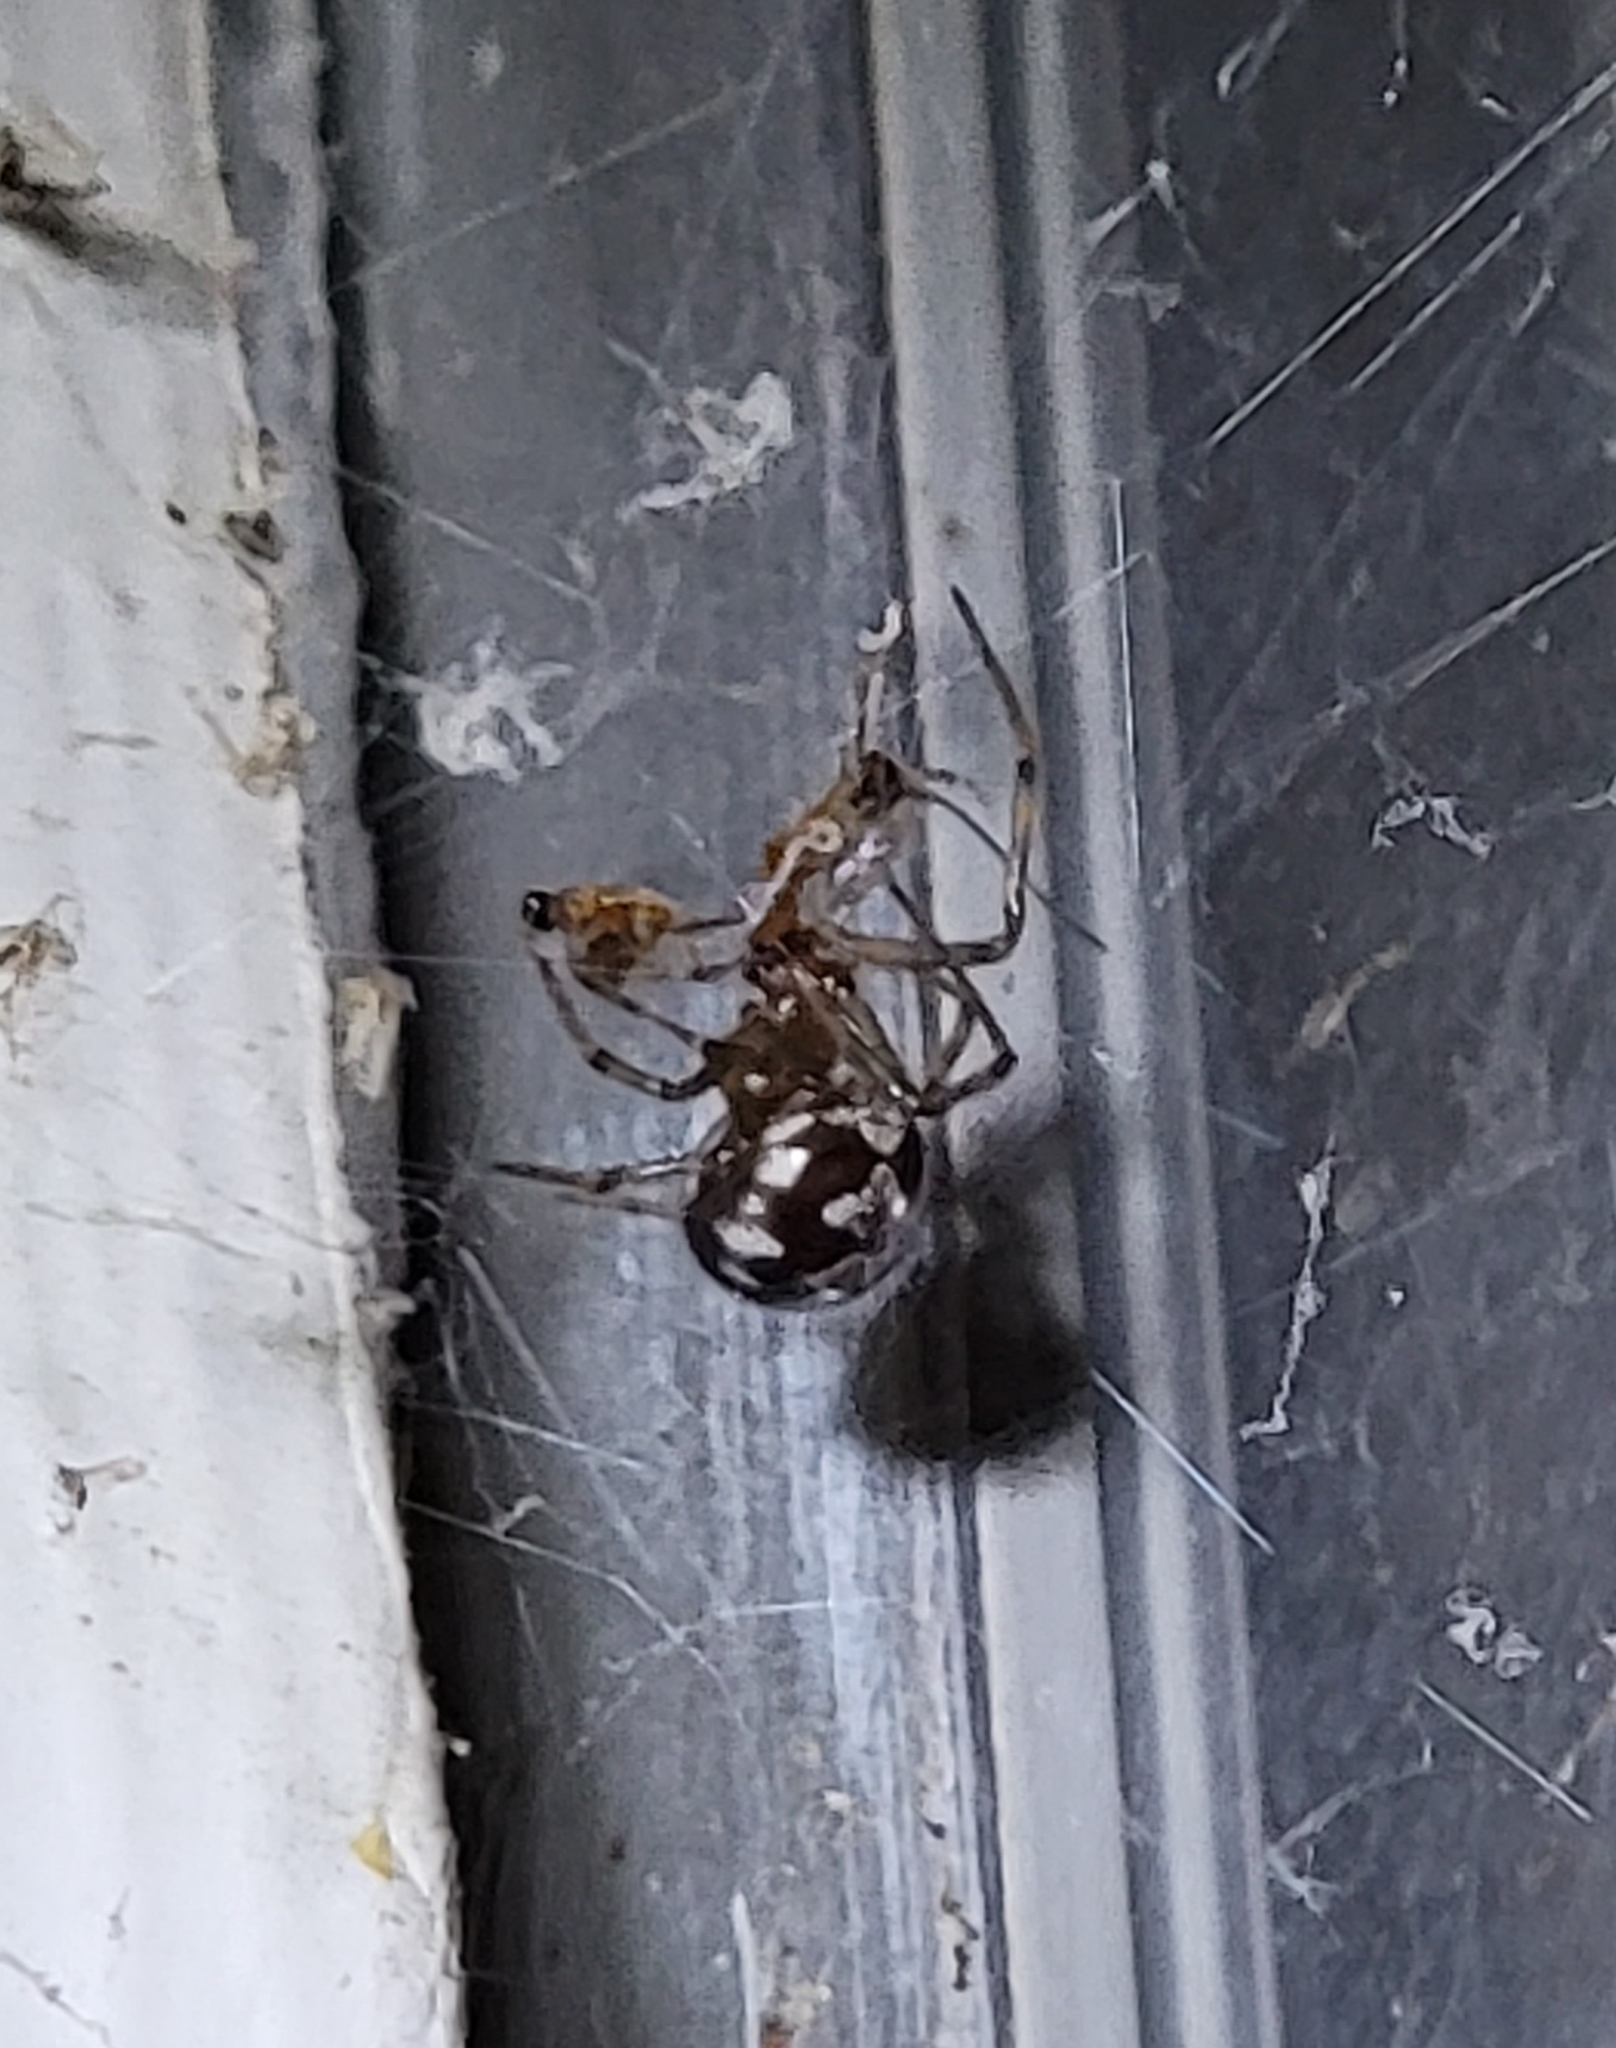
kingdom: Animalia
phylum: Arthropoda
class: Arachnida
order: Araneae
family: Theridiidae
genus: Steatoda
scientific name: Steatoda triangulosa
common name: Triangulate bud spider
